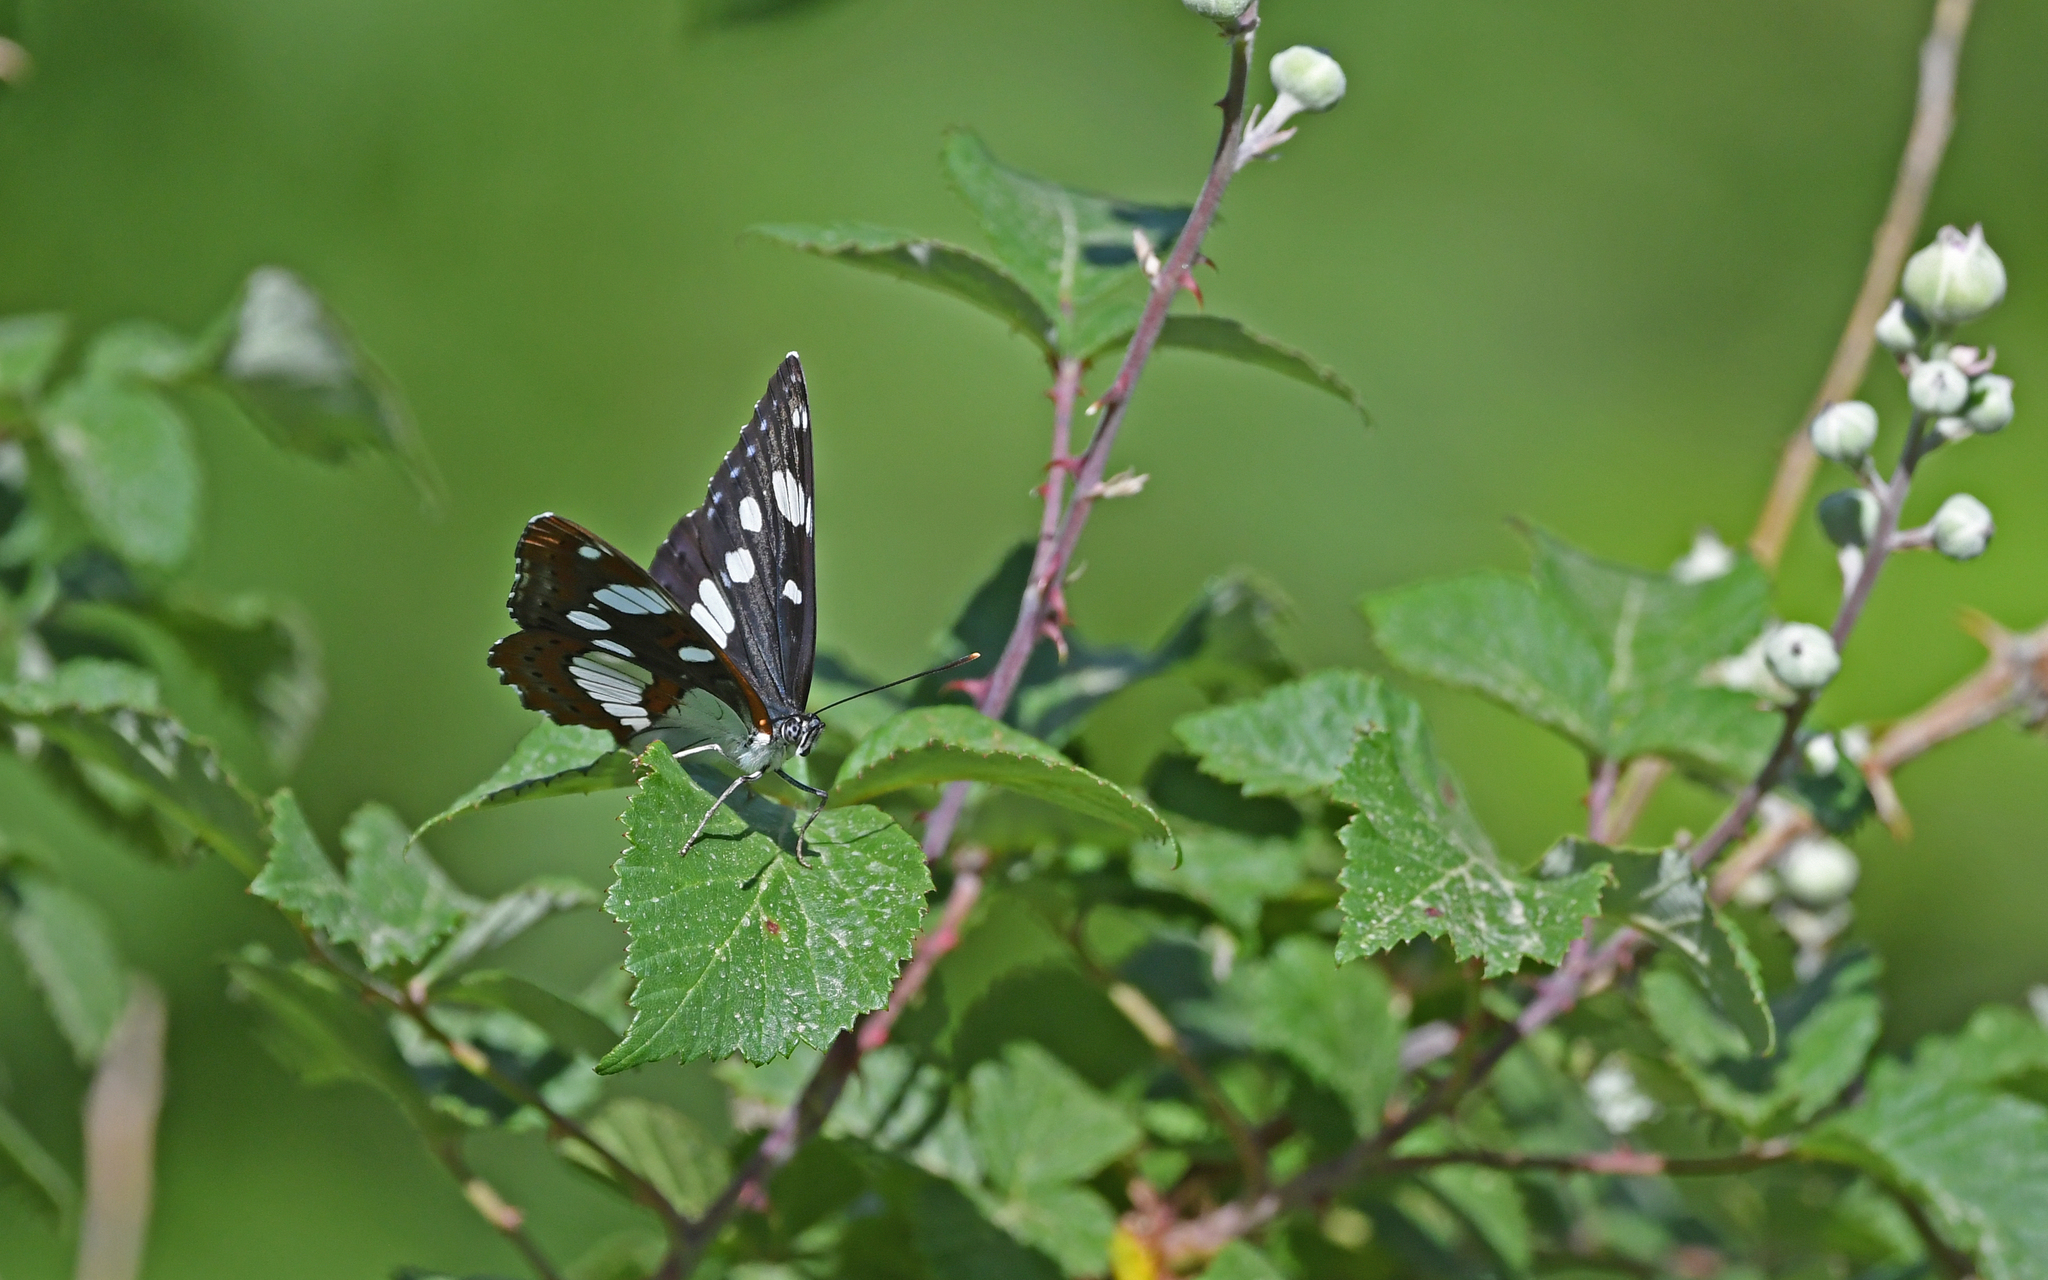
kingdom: Animalia
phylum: Arthropoda
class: Insecta
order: Lepidoptera
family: Nymphalidae
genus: Limenitis
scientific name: Limenitis reducta
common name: Southern white admiral
